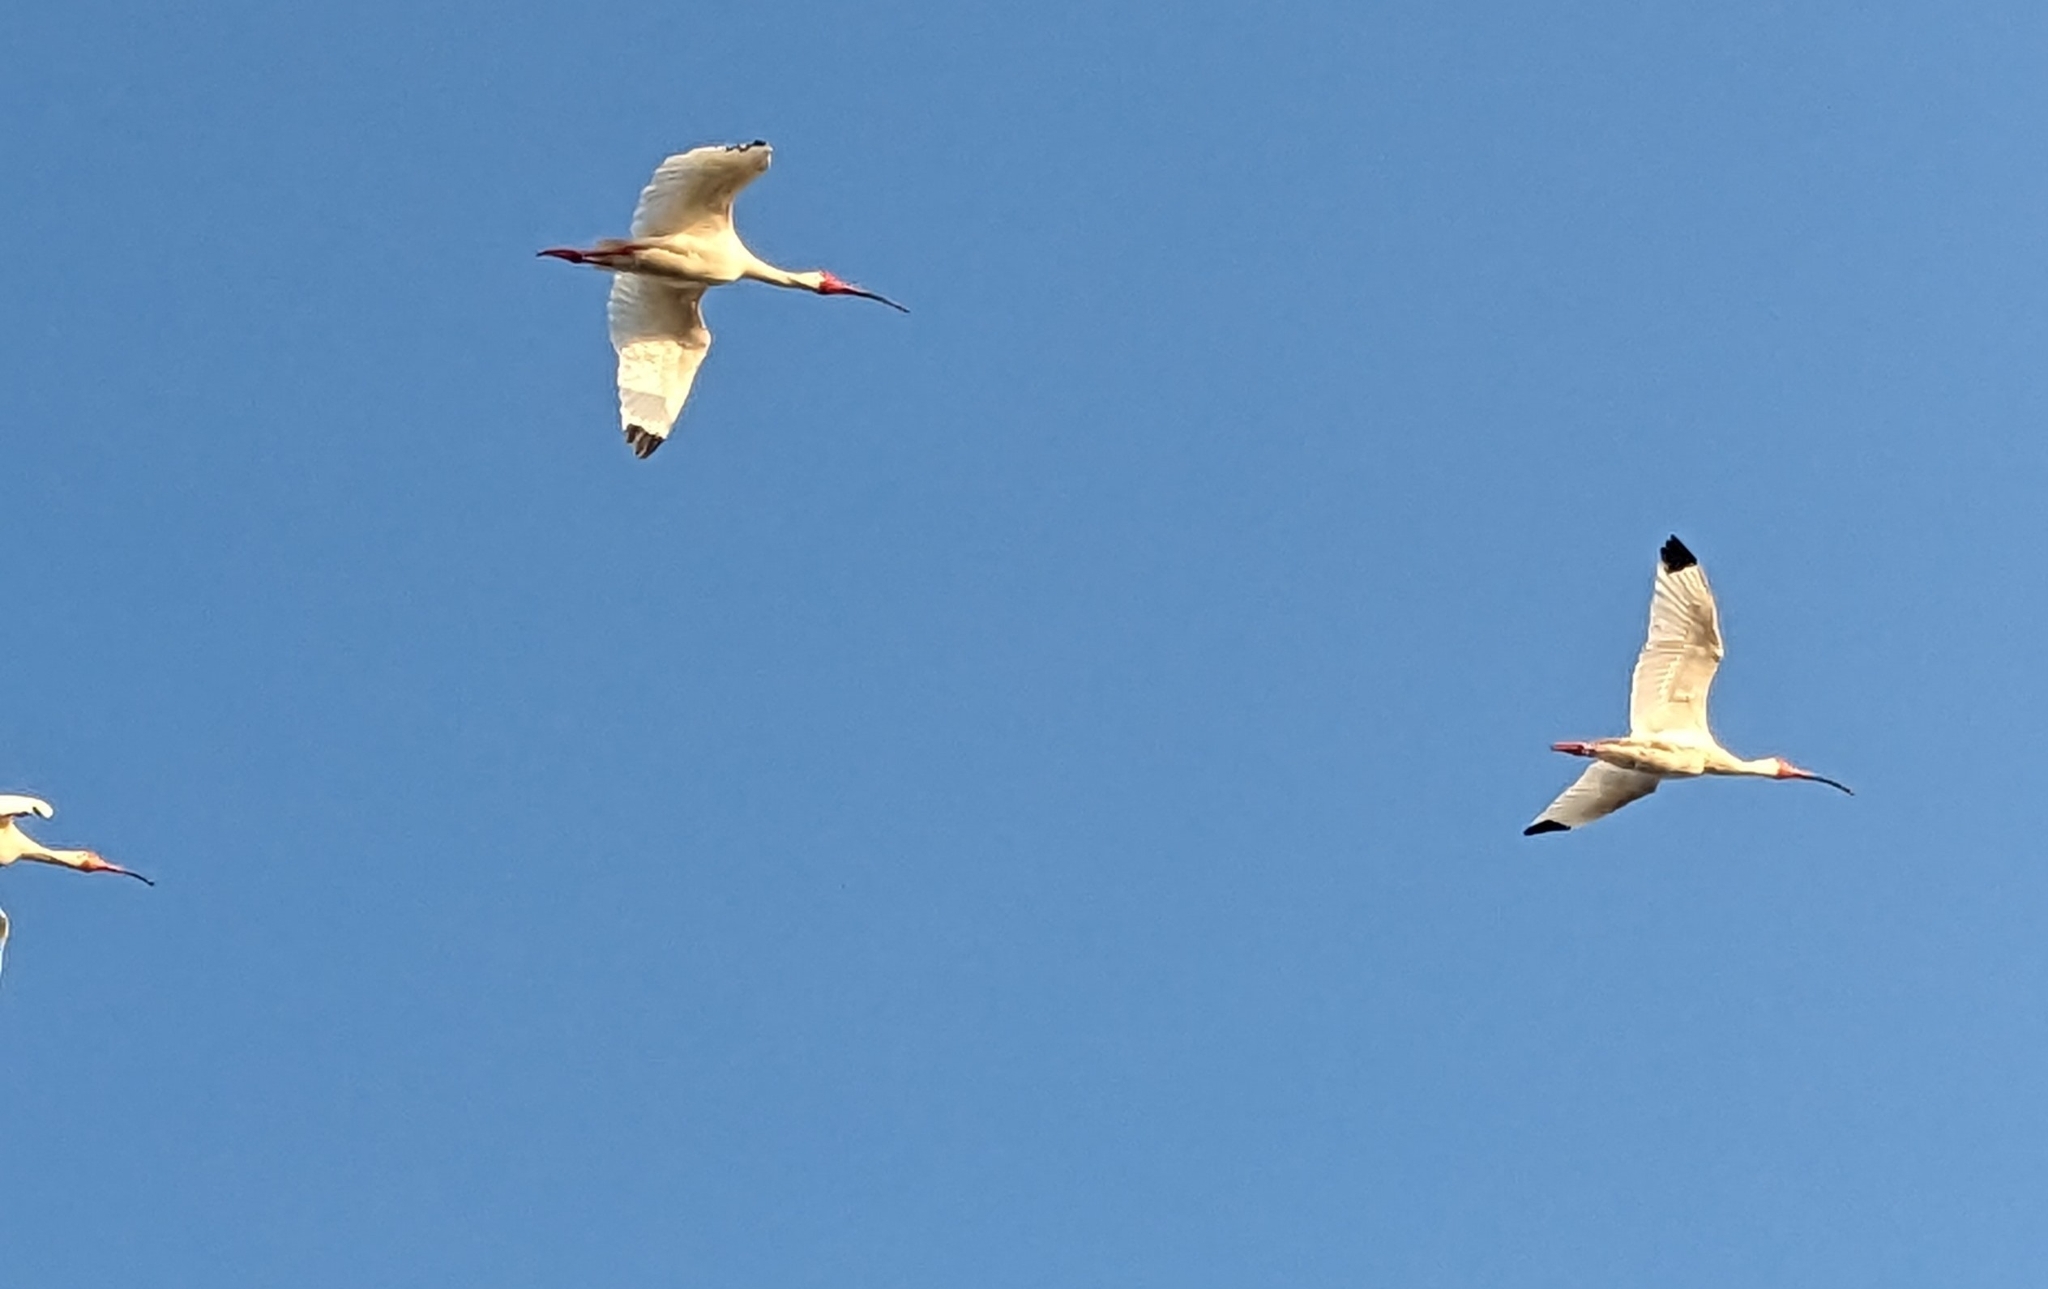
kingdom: Animalia
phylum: Chordata
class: Aves
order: Pelecaniformes
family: Threskiornithidae
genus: Eudocimus
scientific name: Eudocimus albus
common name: White ibis
